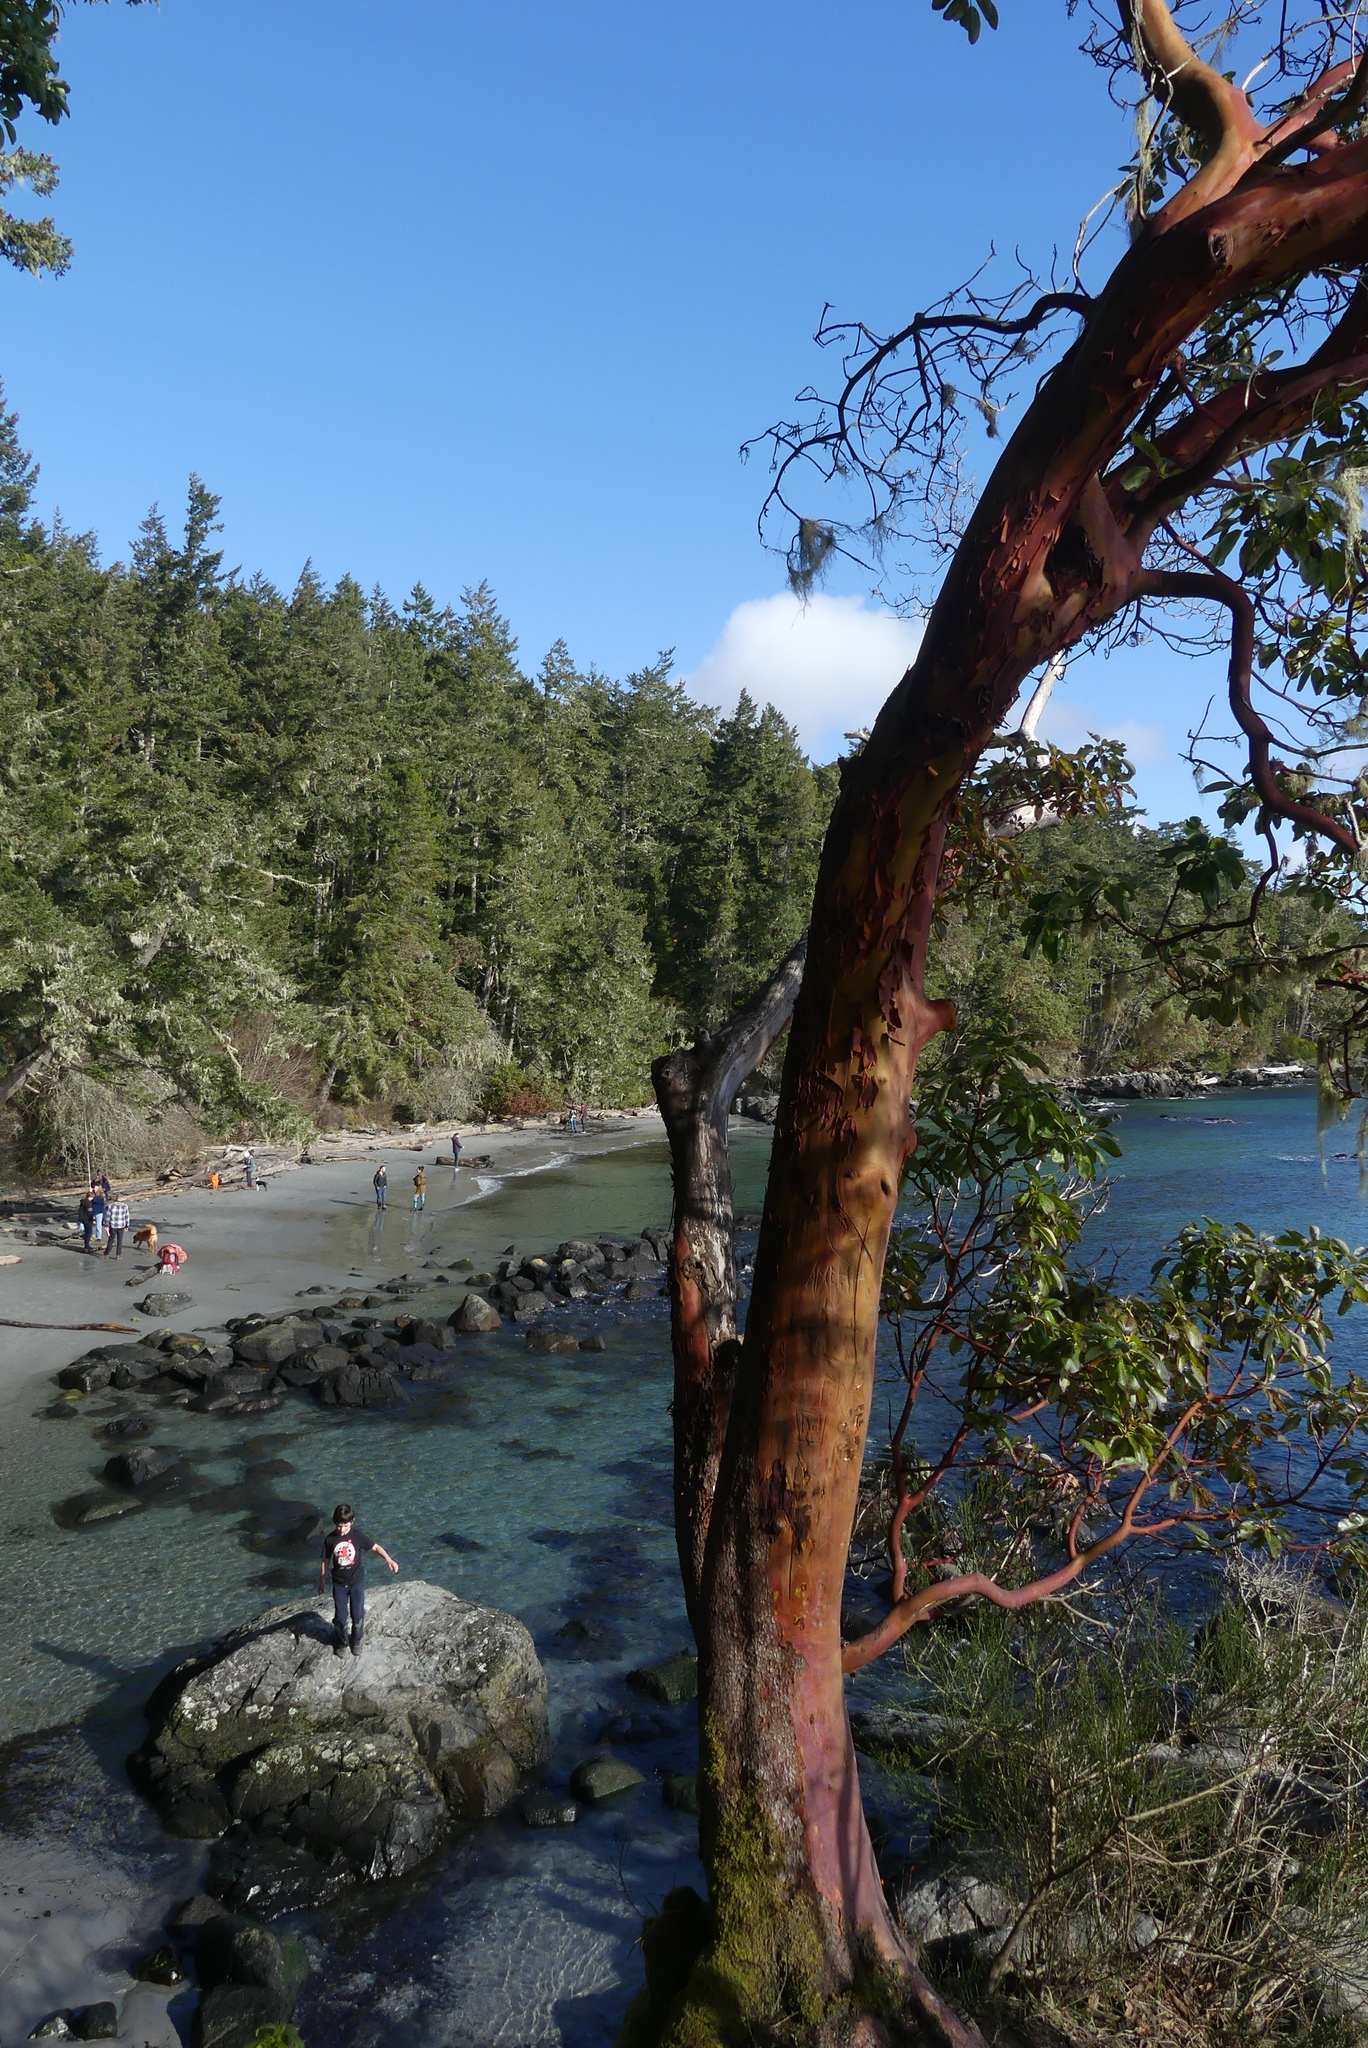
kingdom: Plantae
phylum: Tracheophyta
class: Magnoliopsida
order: Ericales
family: Ericaceae
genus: Arbutus
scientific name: Arbutus menziesii
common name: Pacific madrone
